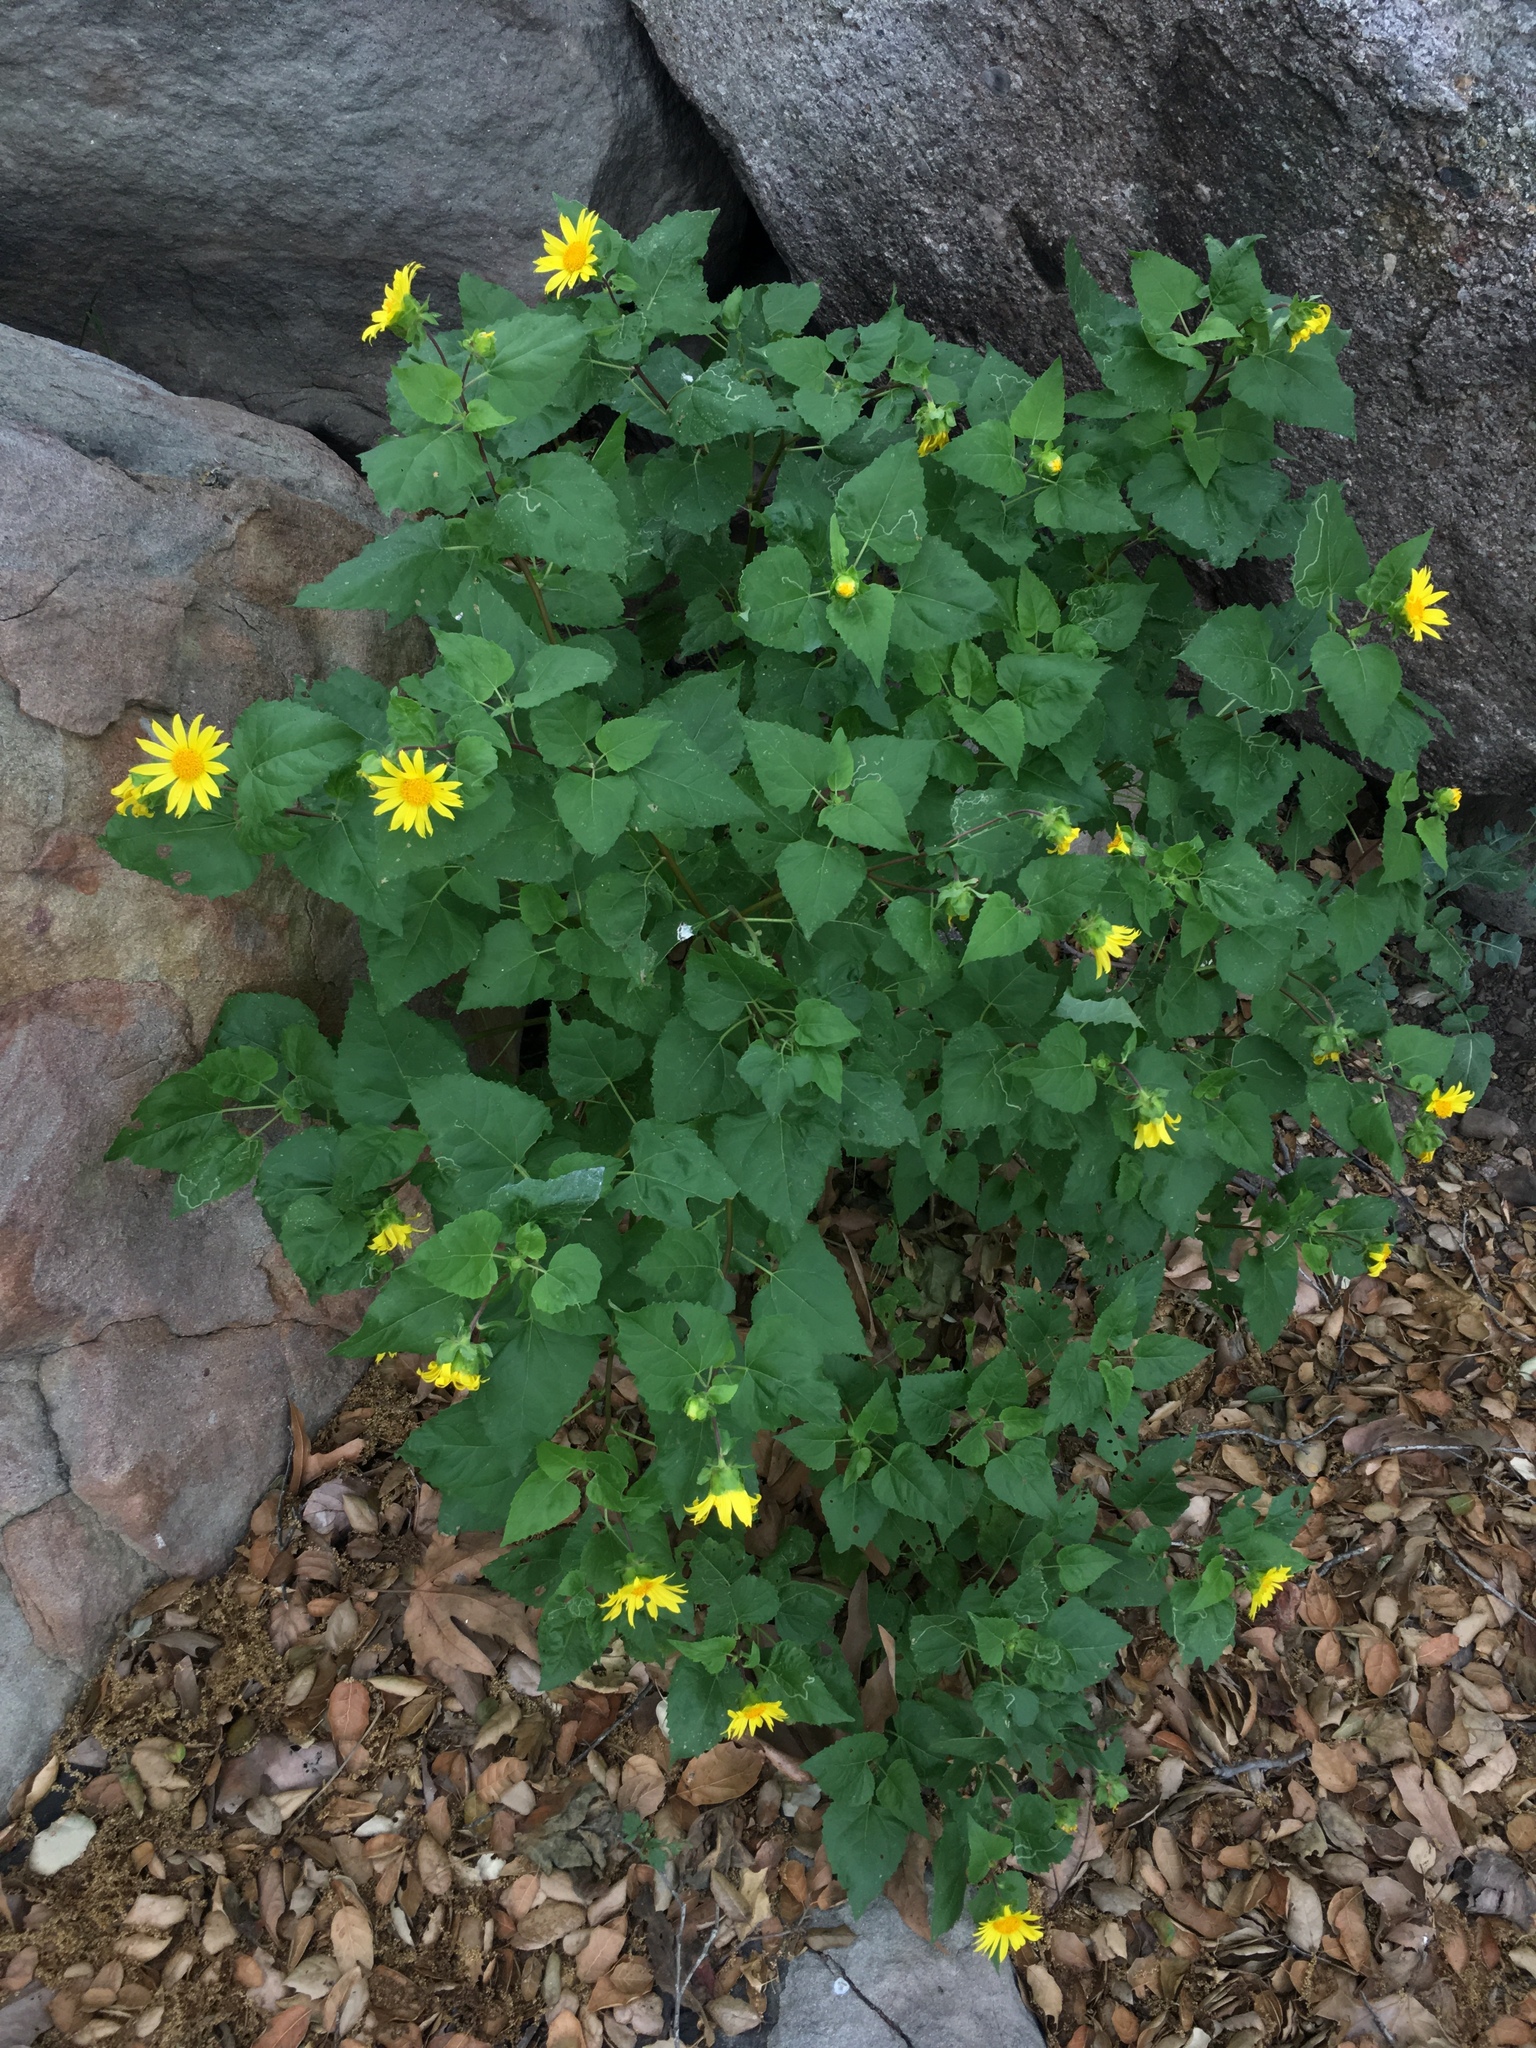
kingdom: Plantae
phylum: Tracheophyta
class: Magnoliopsida
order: Asterales
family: Asteraceae
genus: Venegasia
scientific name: Venegasia carpesioides
